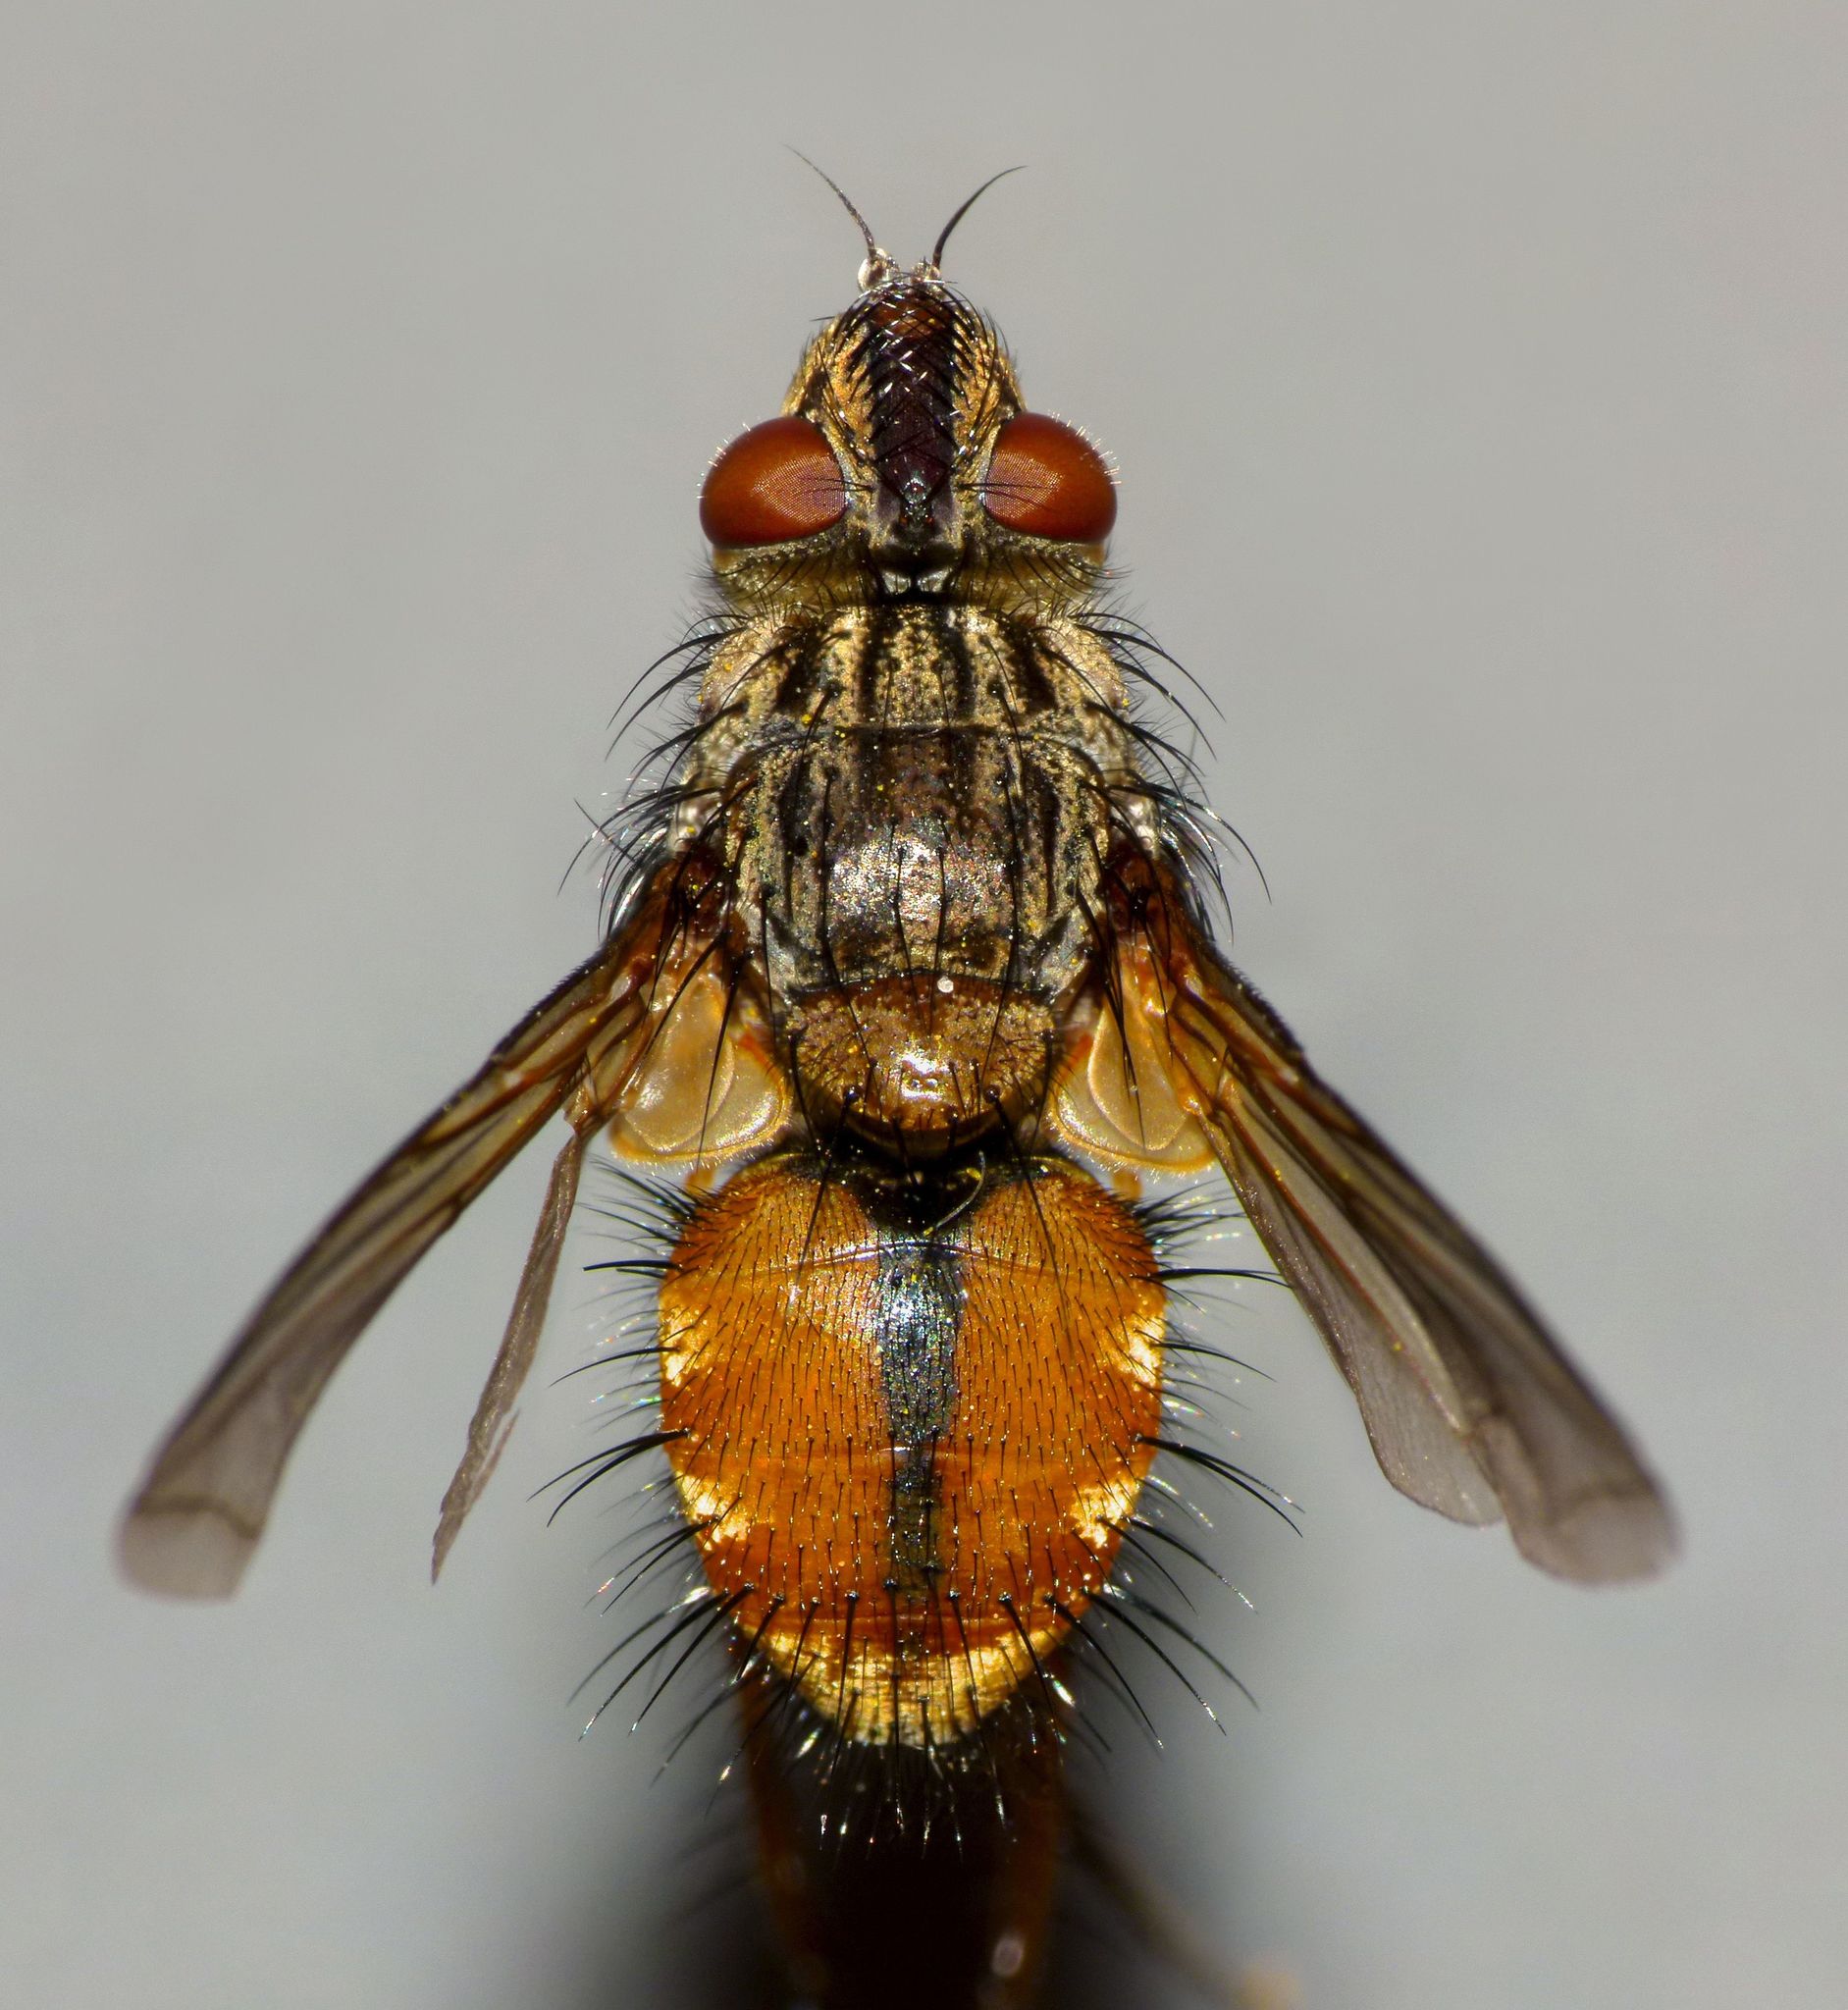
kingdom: Animalia
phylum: Arthropoda
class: Insecta
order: Diptera
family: Tachinidae
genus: Peremptor
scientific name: Peremptor kumaraensis
